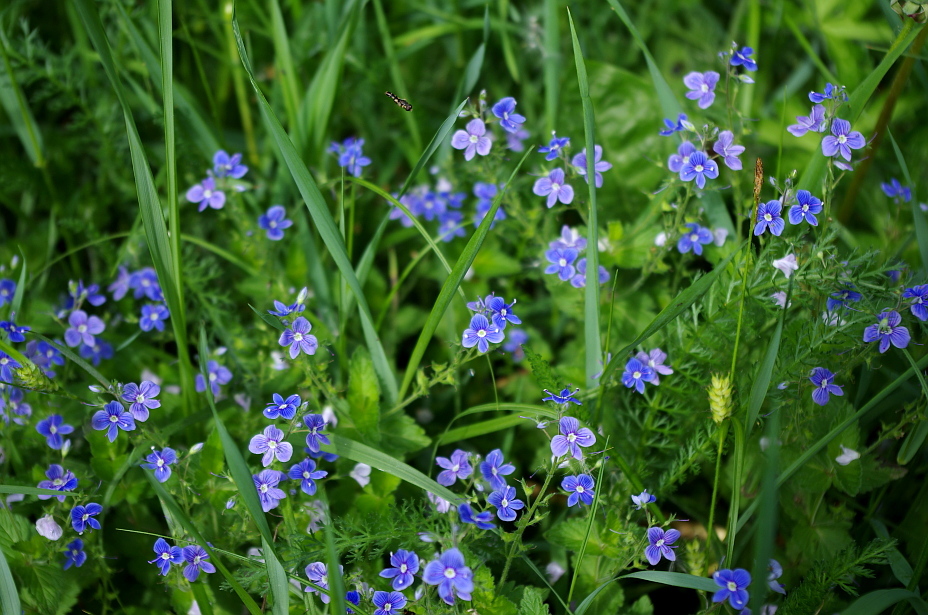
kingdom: Plantae
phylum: Tracheophyta
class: Magnoliopsida
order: Lamiales
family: Plantaginaceae
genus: Veronica
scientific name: Veronica chamaedrys
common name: Germander speedwell
